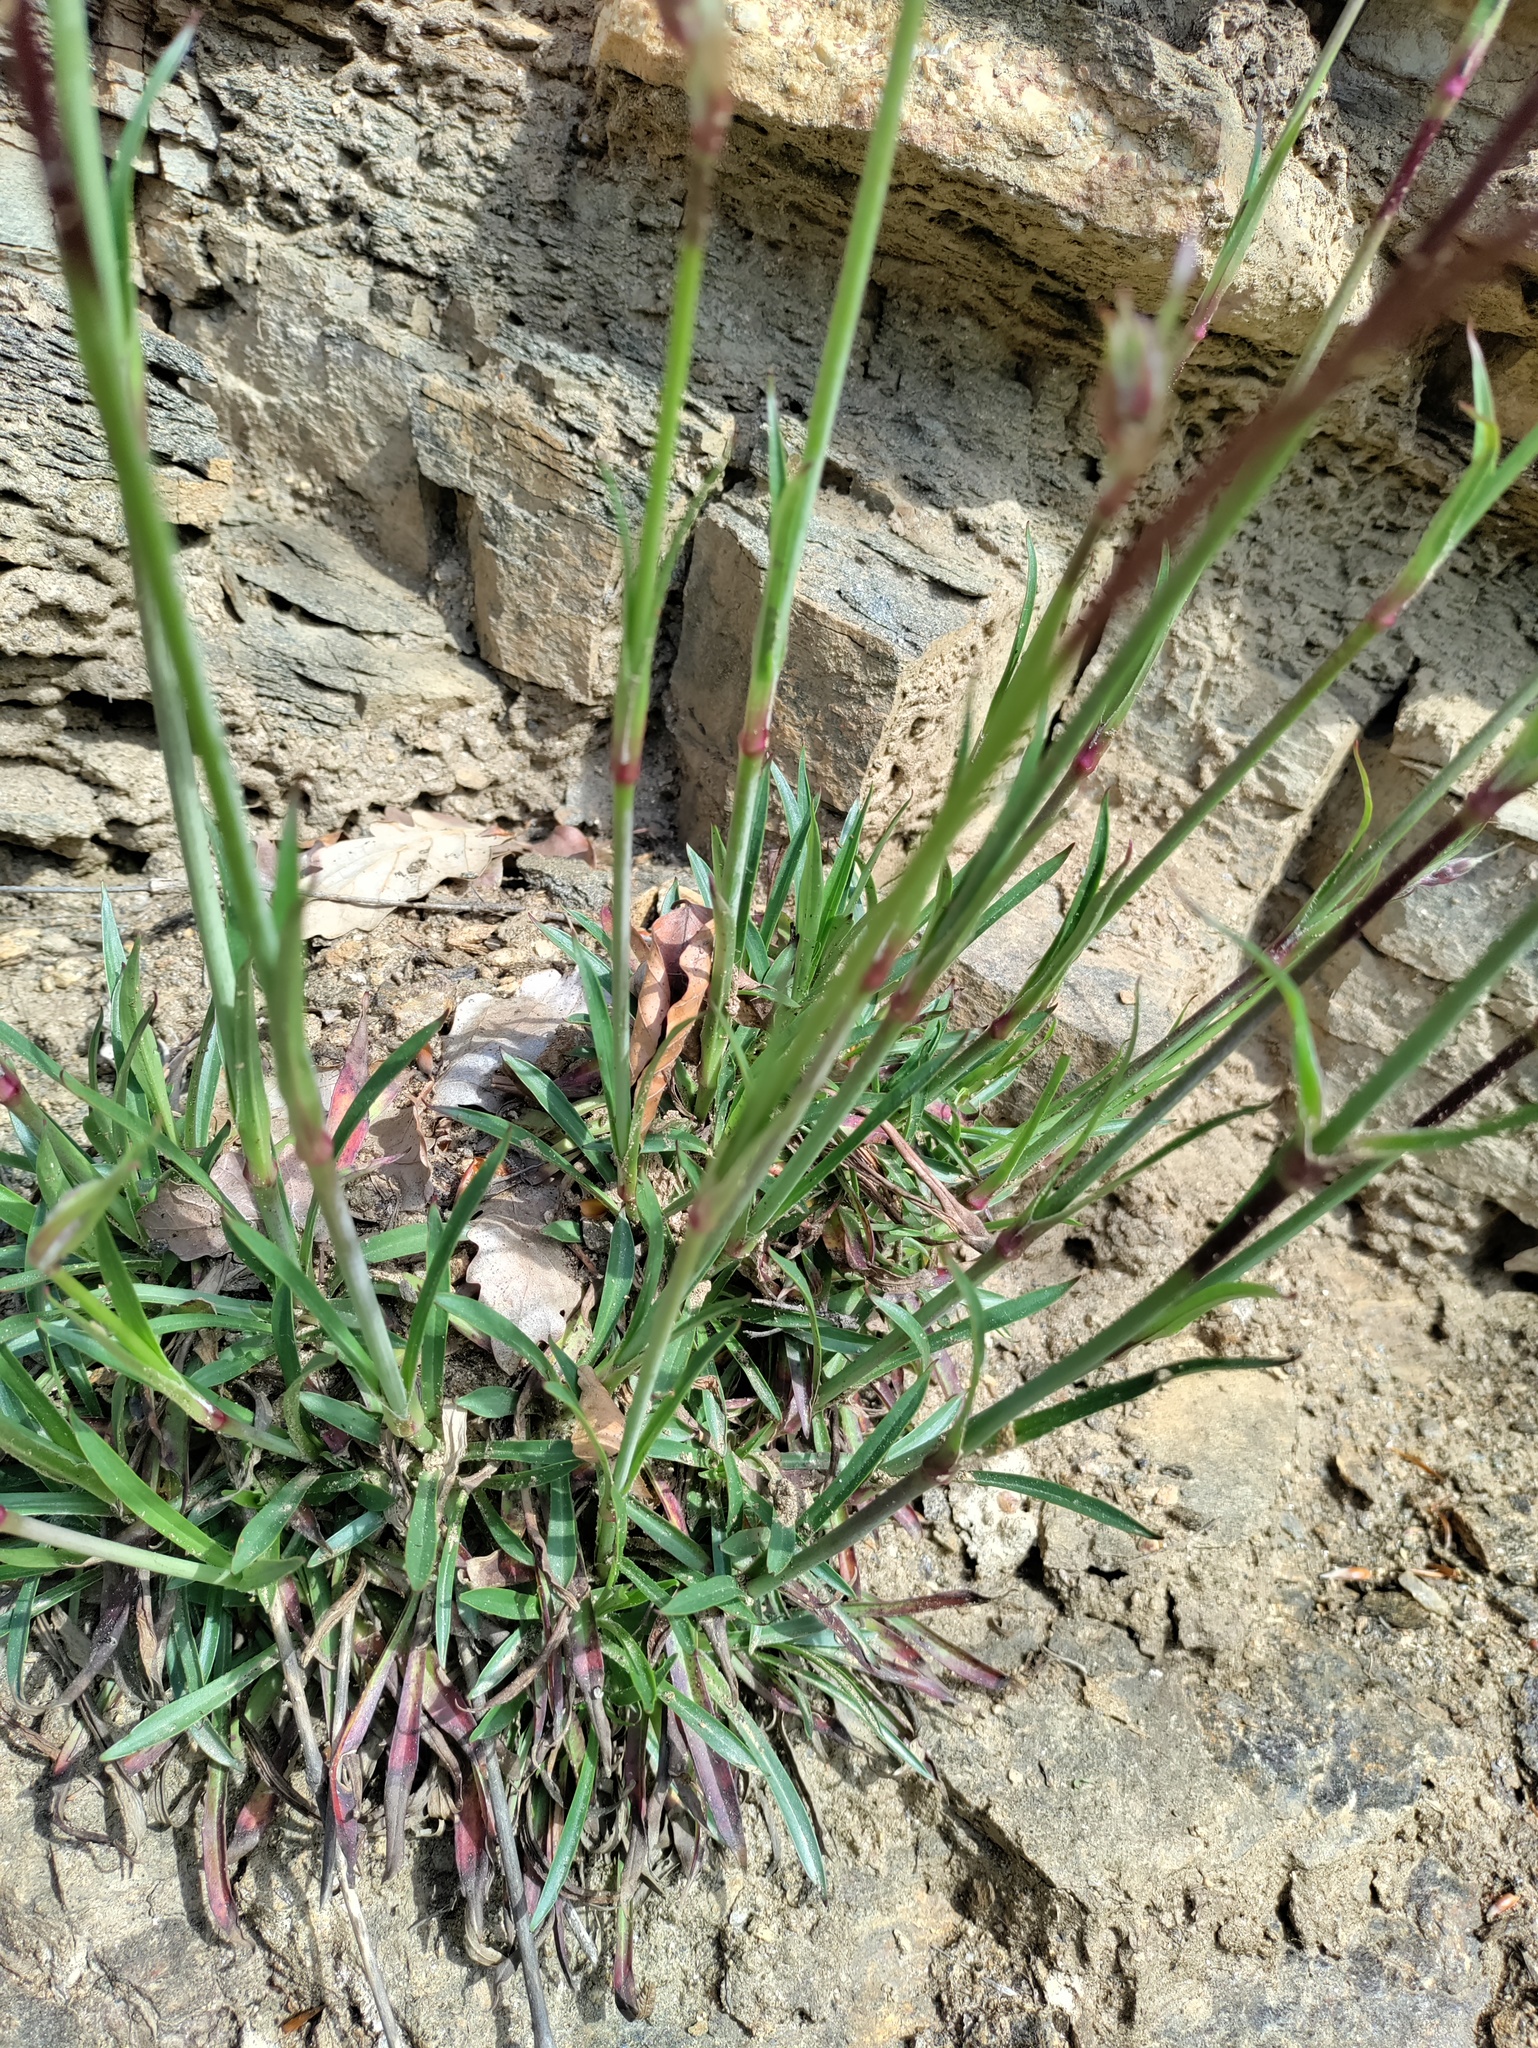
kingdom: Plantae
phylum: Tracheophyta
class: Magnoliopsida
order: Caryophyllales
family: Caryophyllaceae
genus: Viscaria
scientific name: Viscaria vulgaris
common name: Clammy campion
